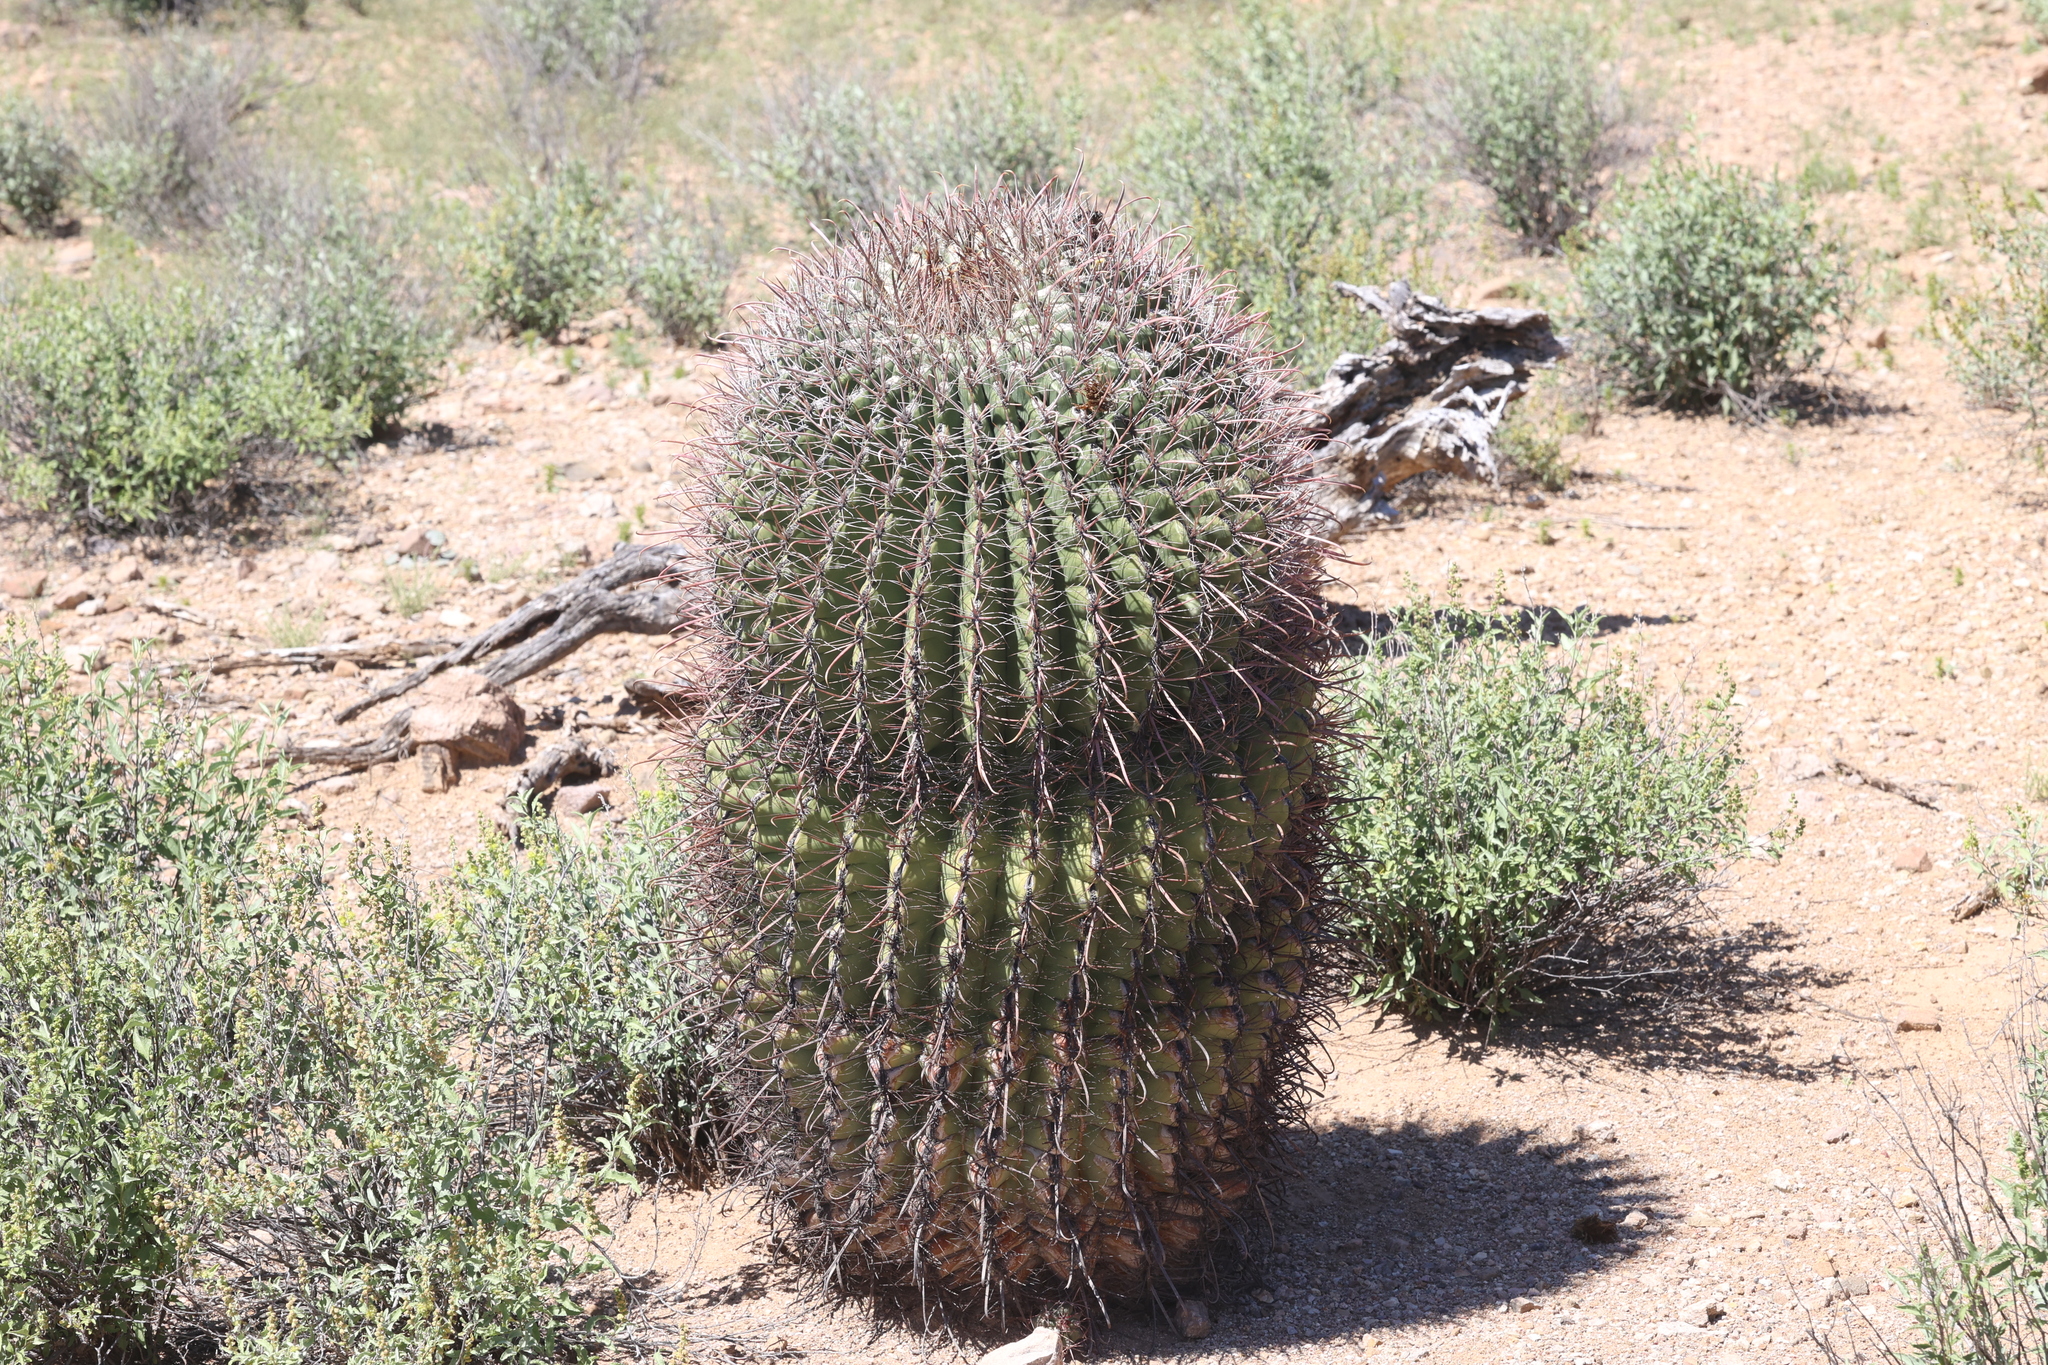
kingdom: Plantae
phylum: Tracheophyta
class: Magnoliopsida
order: Caryophyllales
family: Cactaceae
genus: Ferocactus
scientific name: Ferocactus wislizeni
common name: Candy barrel cactus
